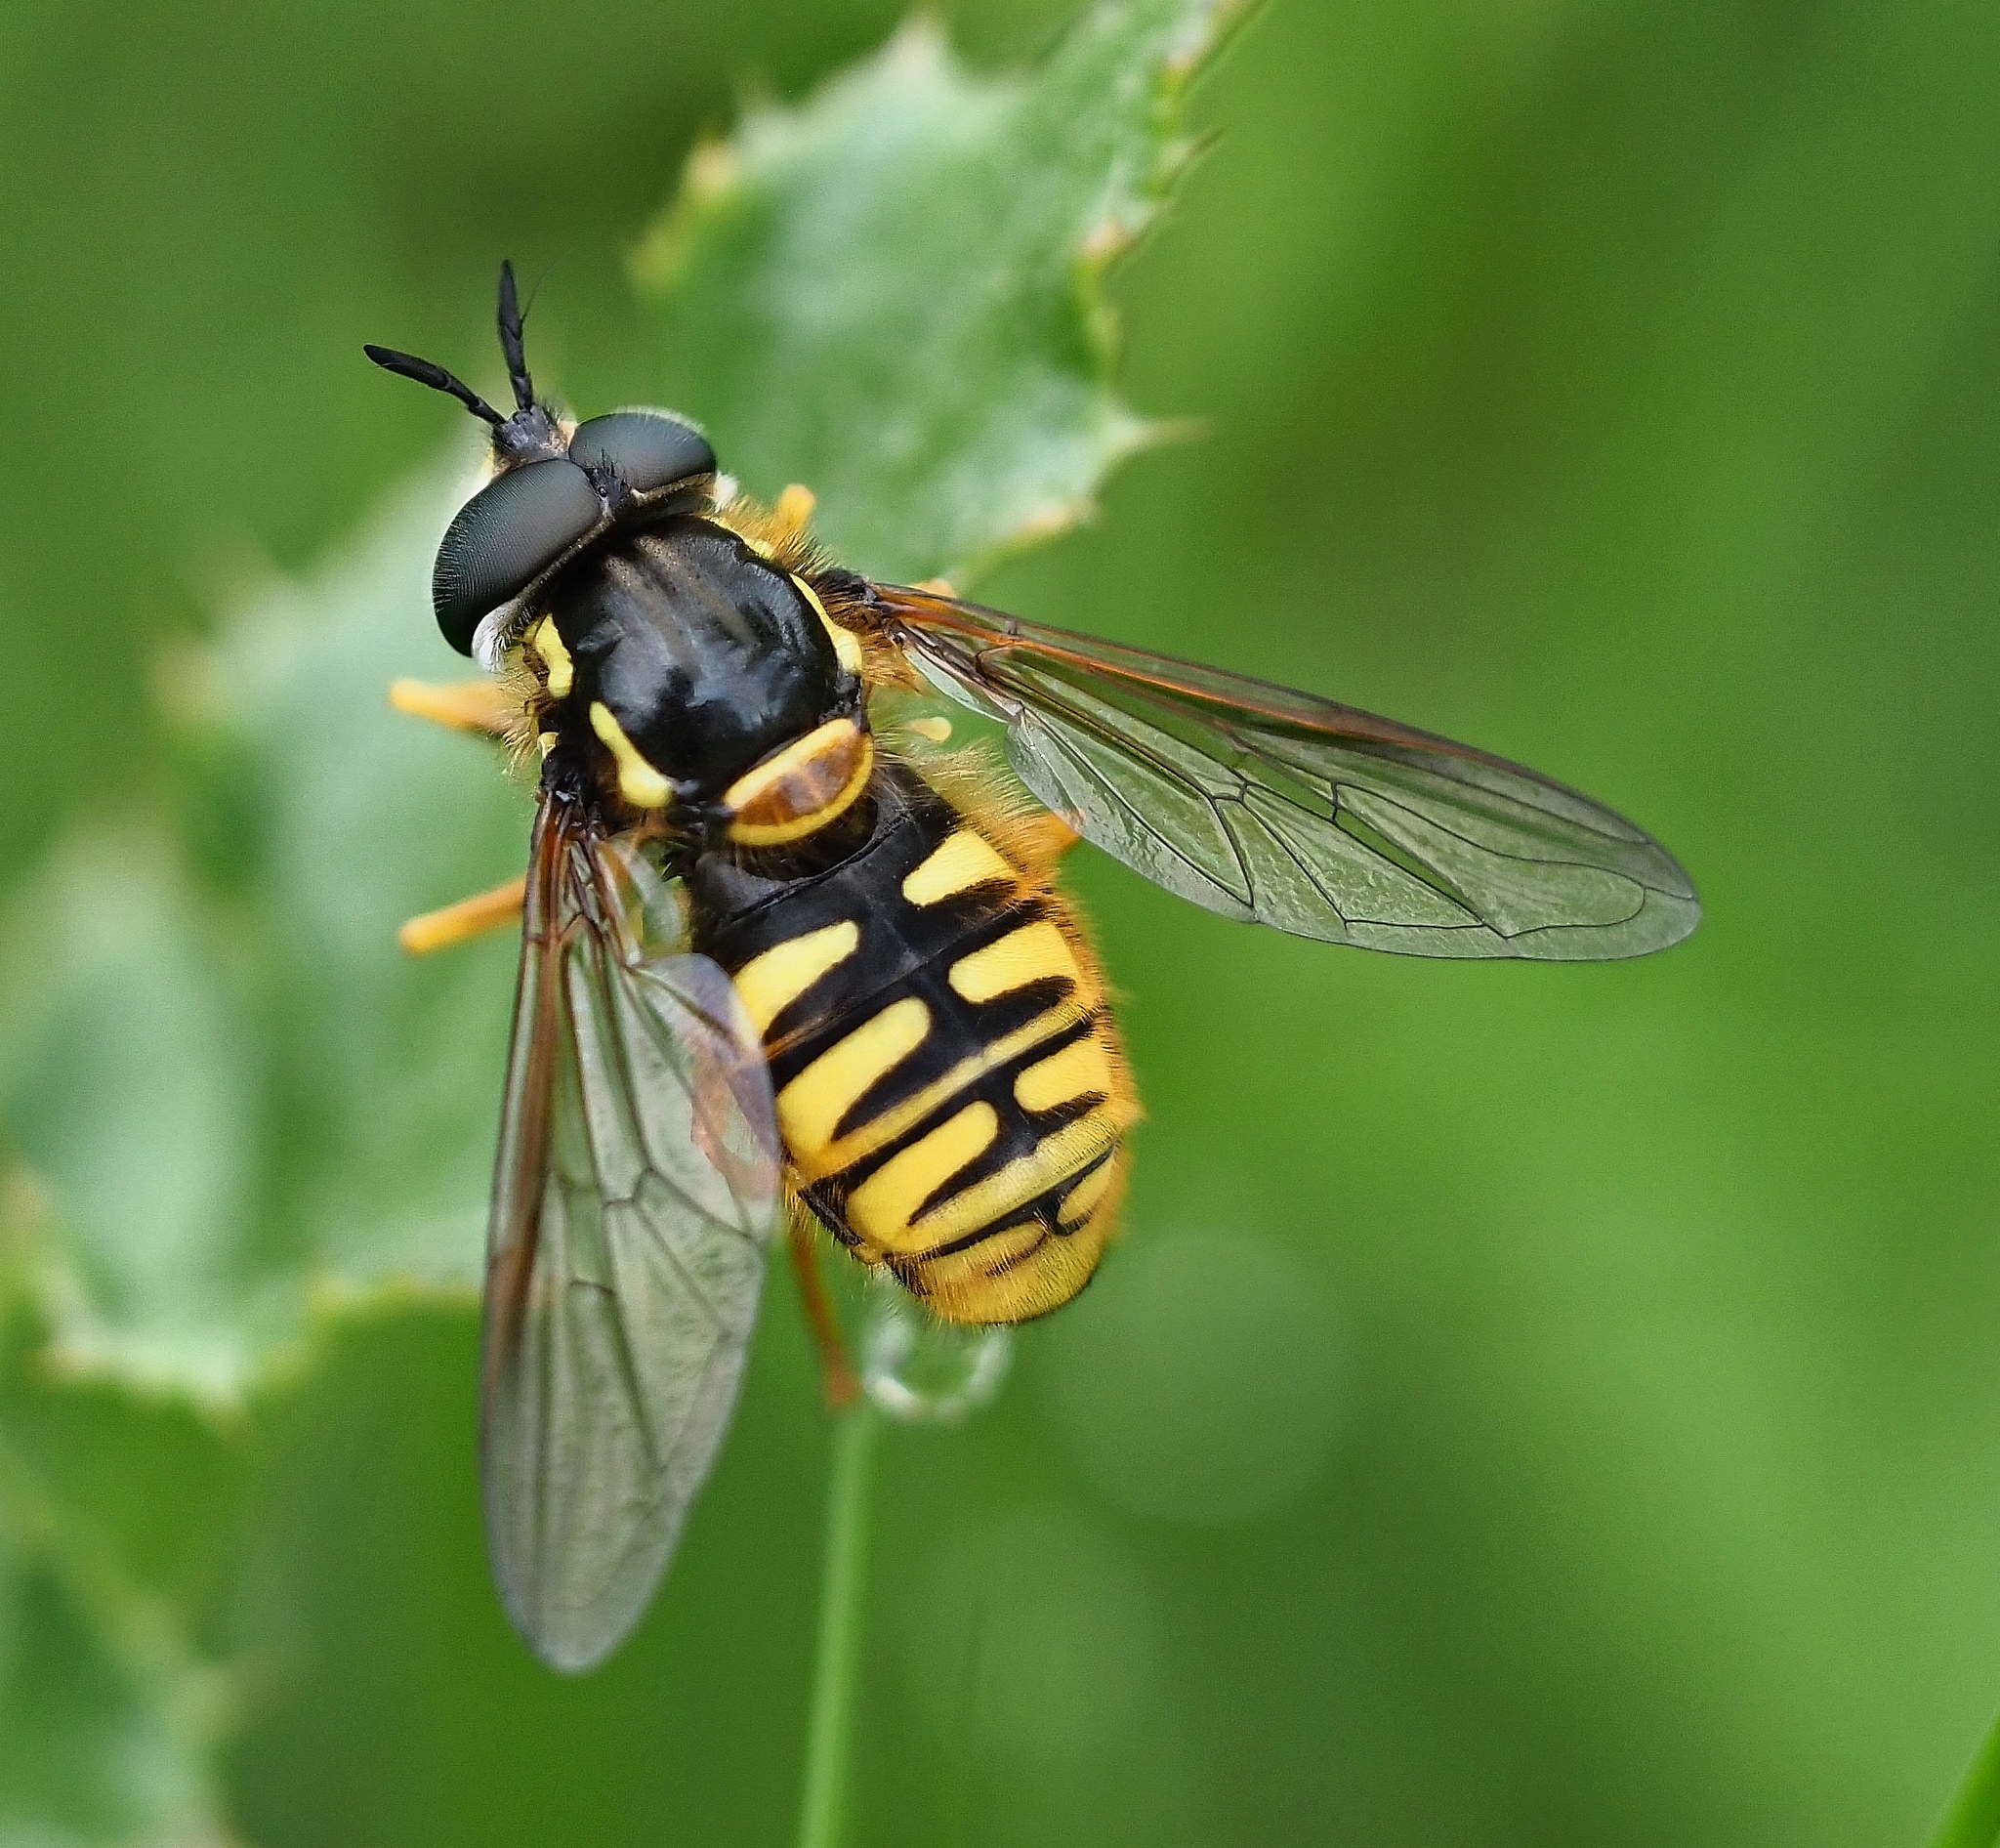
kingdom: Animalia
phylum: Arthropoda
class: Insecta
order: Diptera
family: Syrphidae
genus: Chrysotoxum
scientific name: Chrysotoxum cautum
